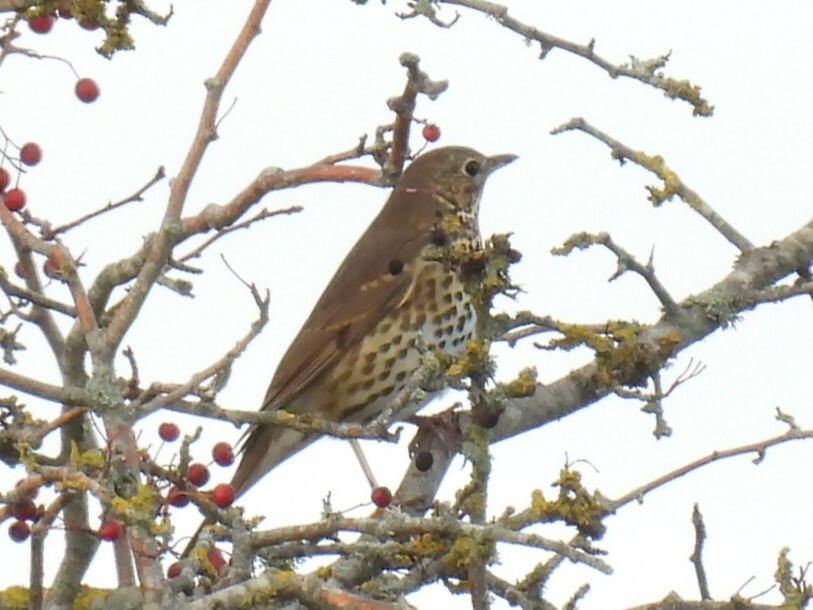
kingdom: Animalia
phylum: Chordata
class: Aves
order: Passeriformes
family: Turdidae
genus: Turdus
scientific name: Turdus philomelos
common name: Song thrush
